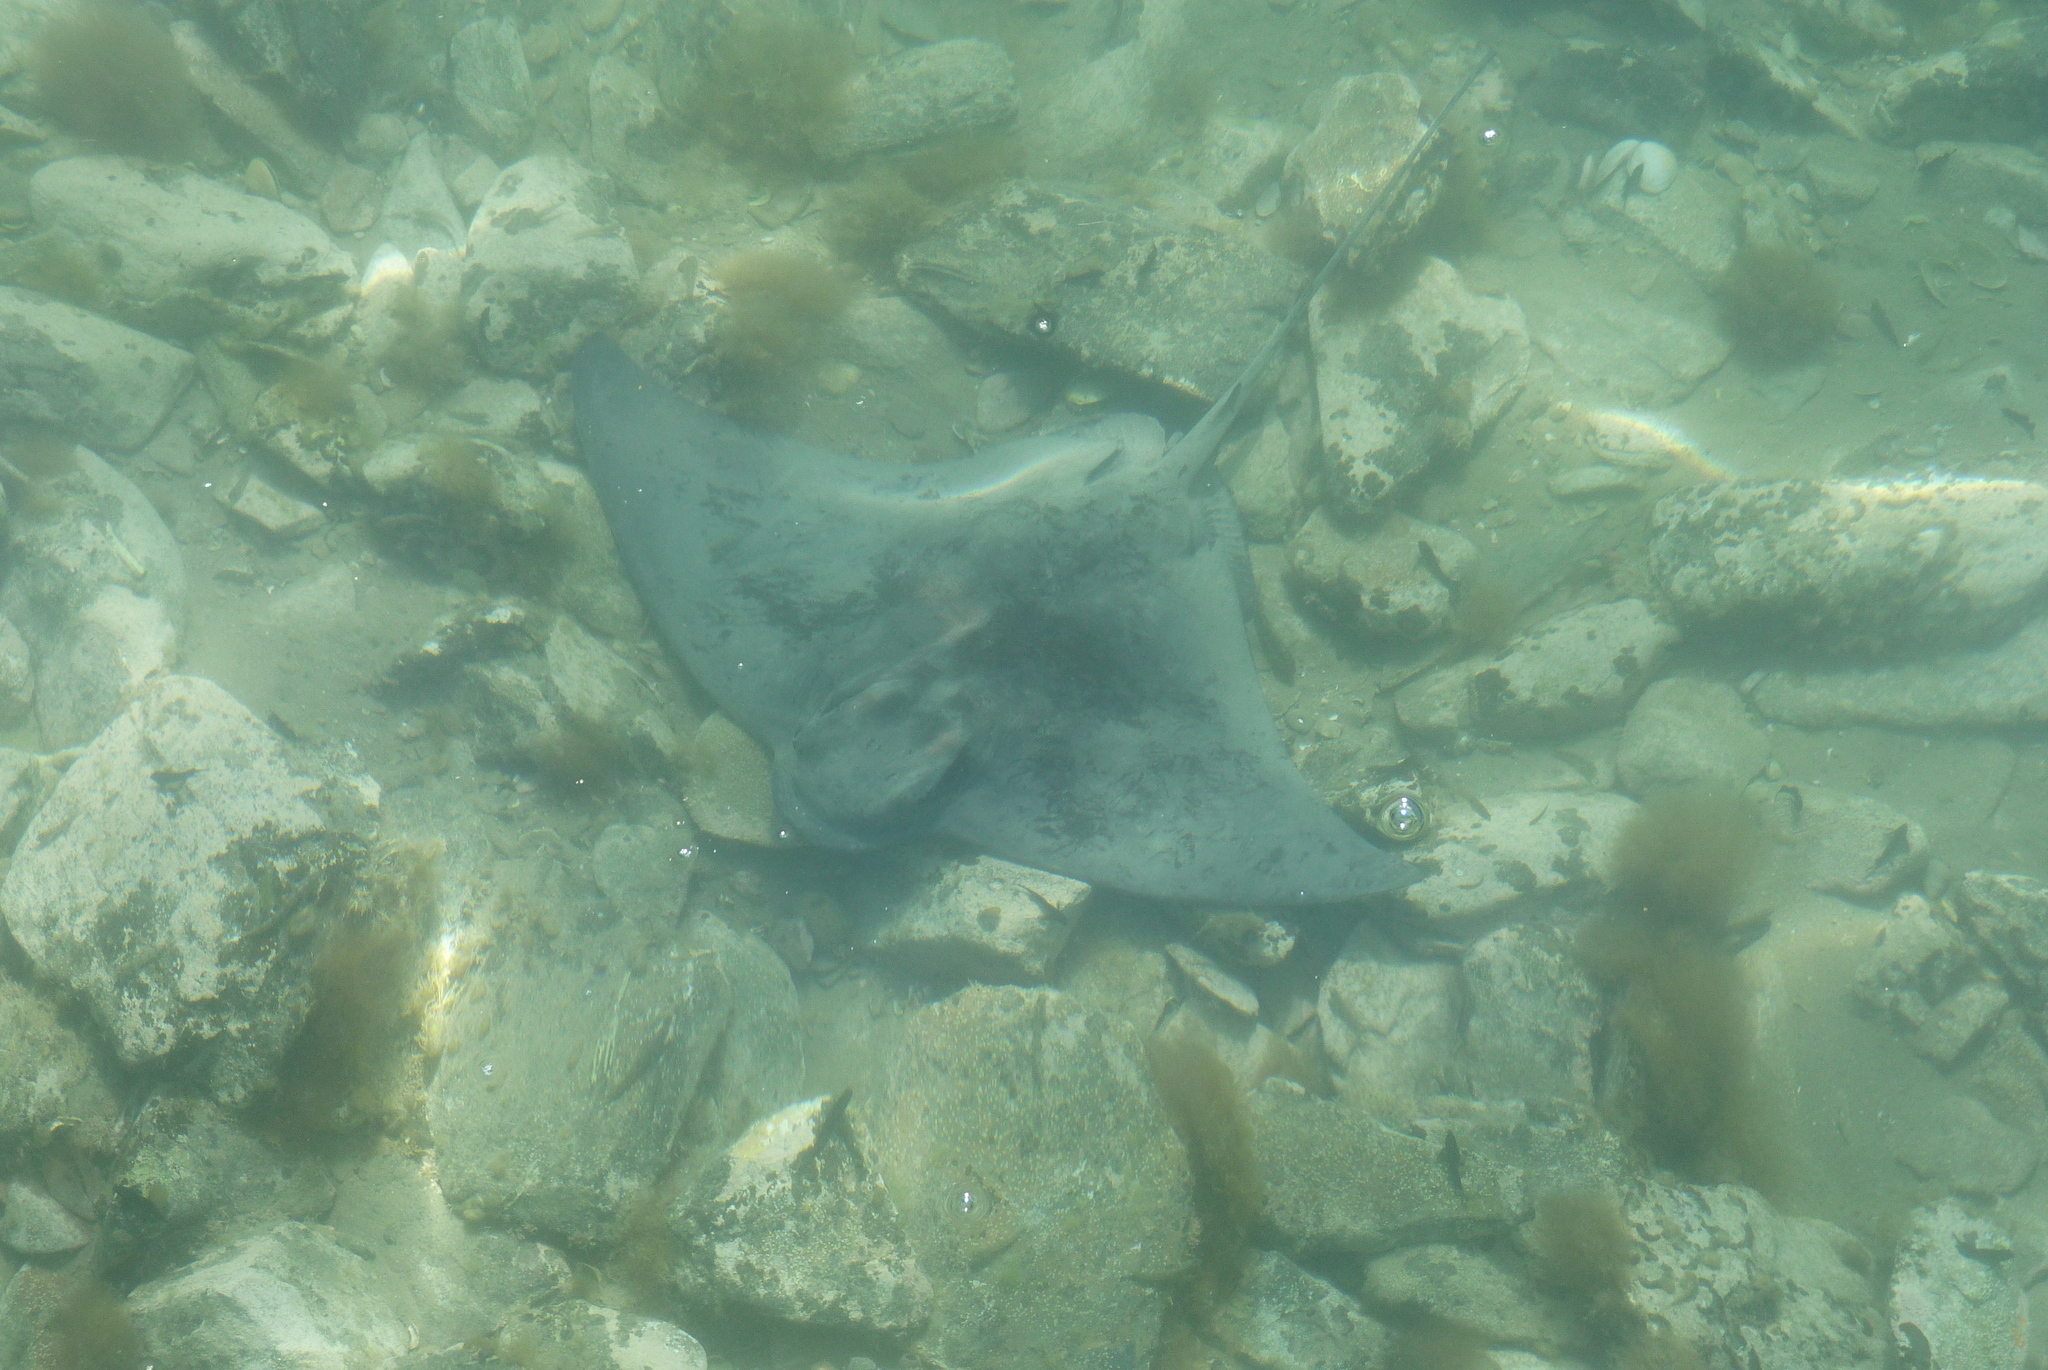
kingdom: Animalia
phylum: Chordata
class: Elasmobranchii
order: Myliobatiformes
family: Myliobatidae
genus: Myliobatis
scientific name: Myliobatis tenuicaudatus
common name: Eagle ray
